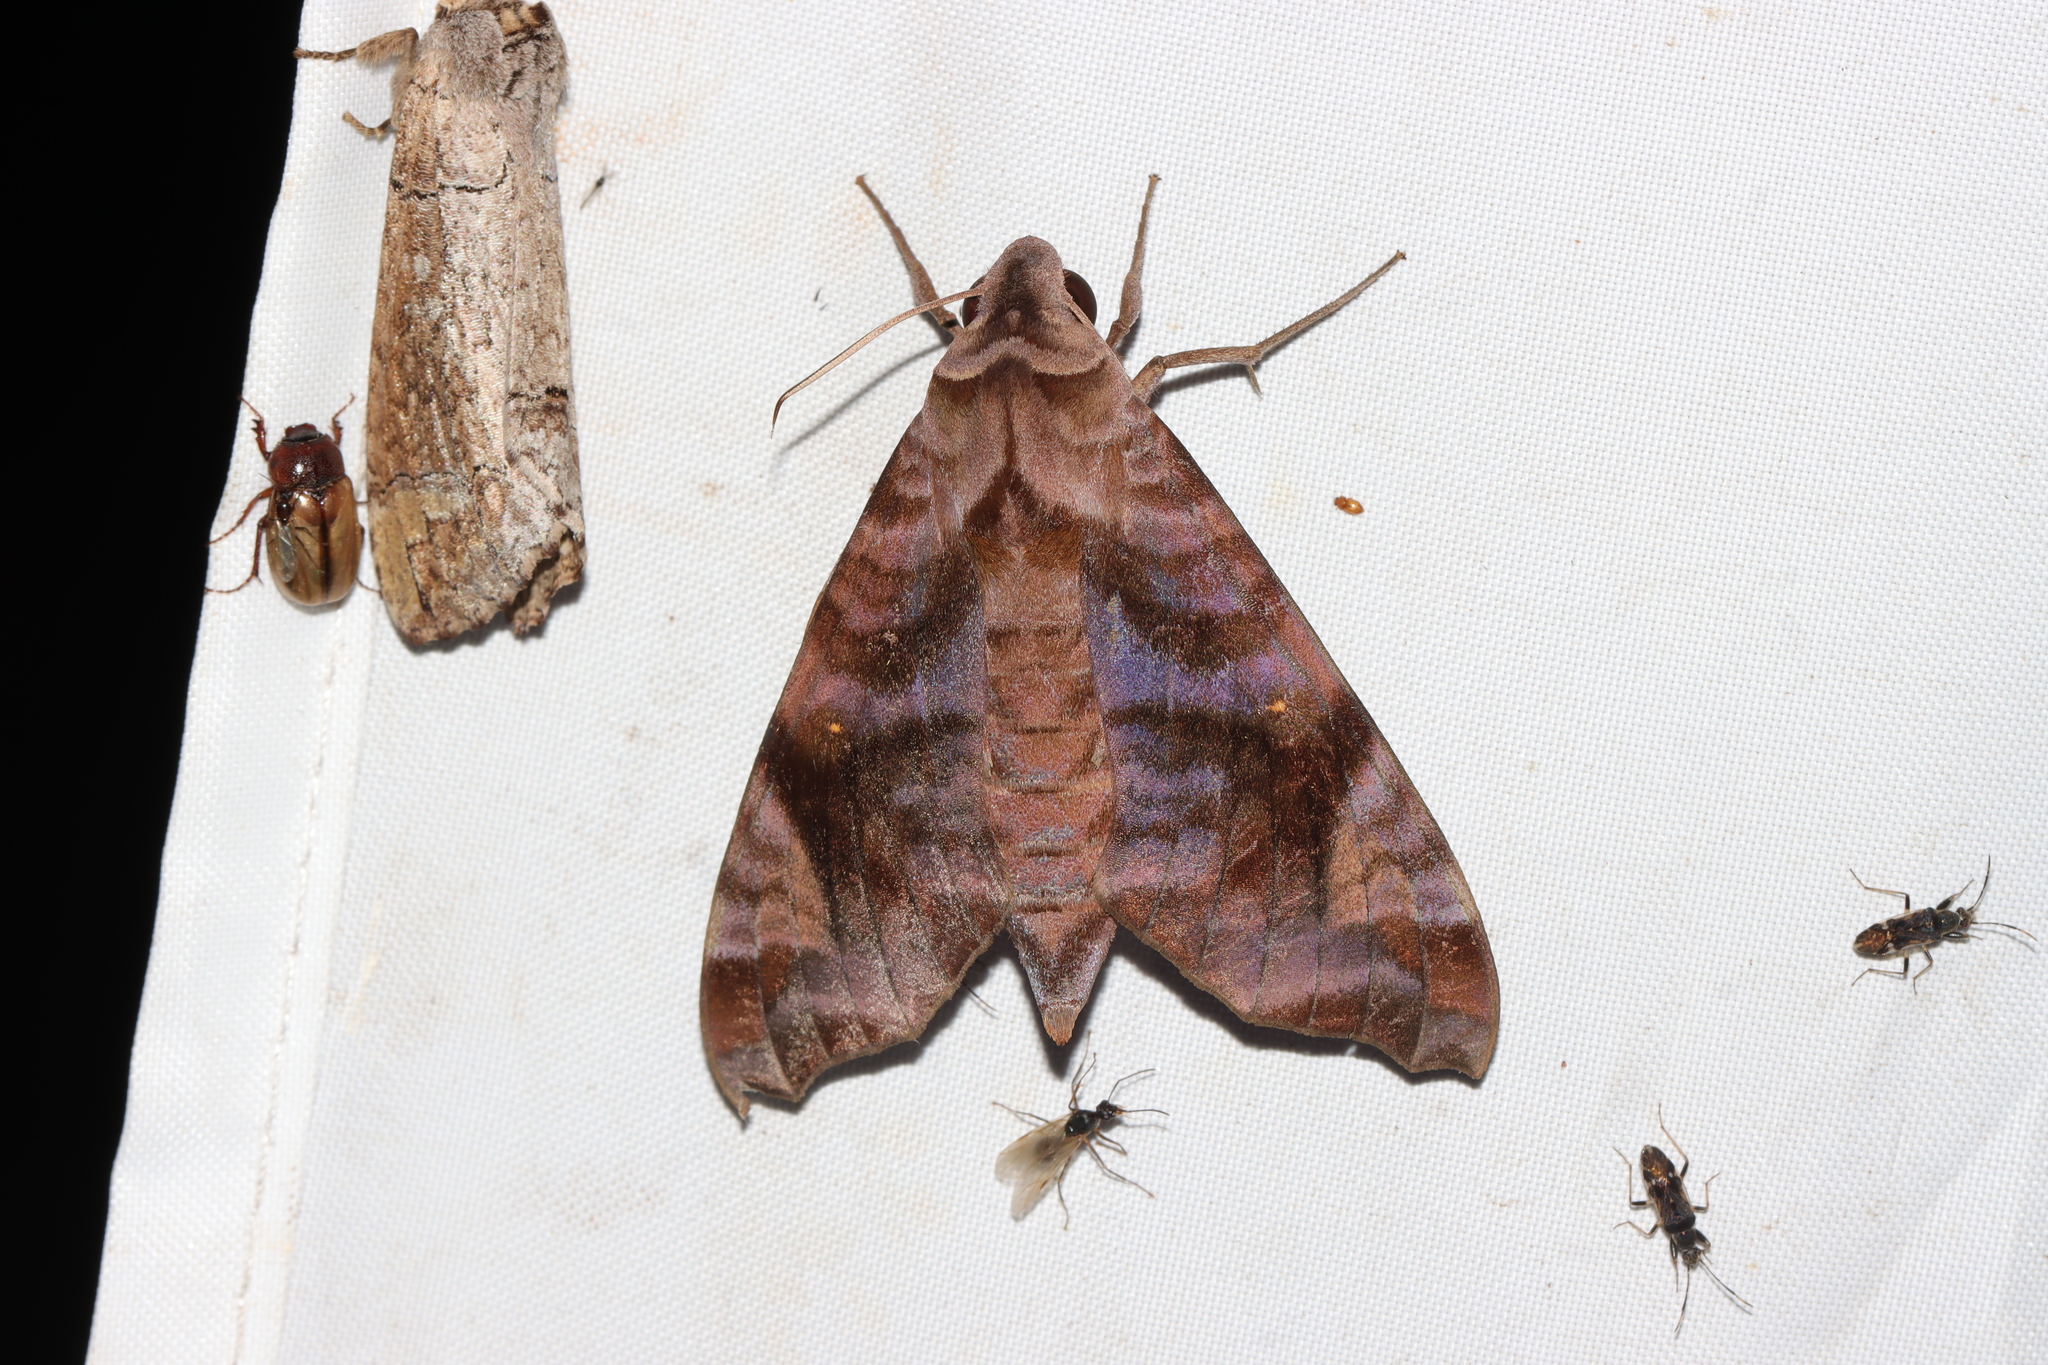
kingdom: Animalia
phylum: Arthropoda
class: Insecta
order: Lepidoptera
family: Sphingidae
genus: Acosmeryx
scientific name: Acosmeryx anceus
